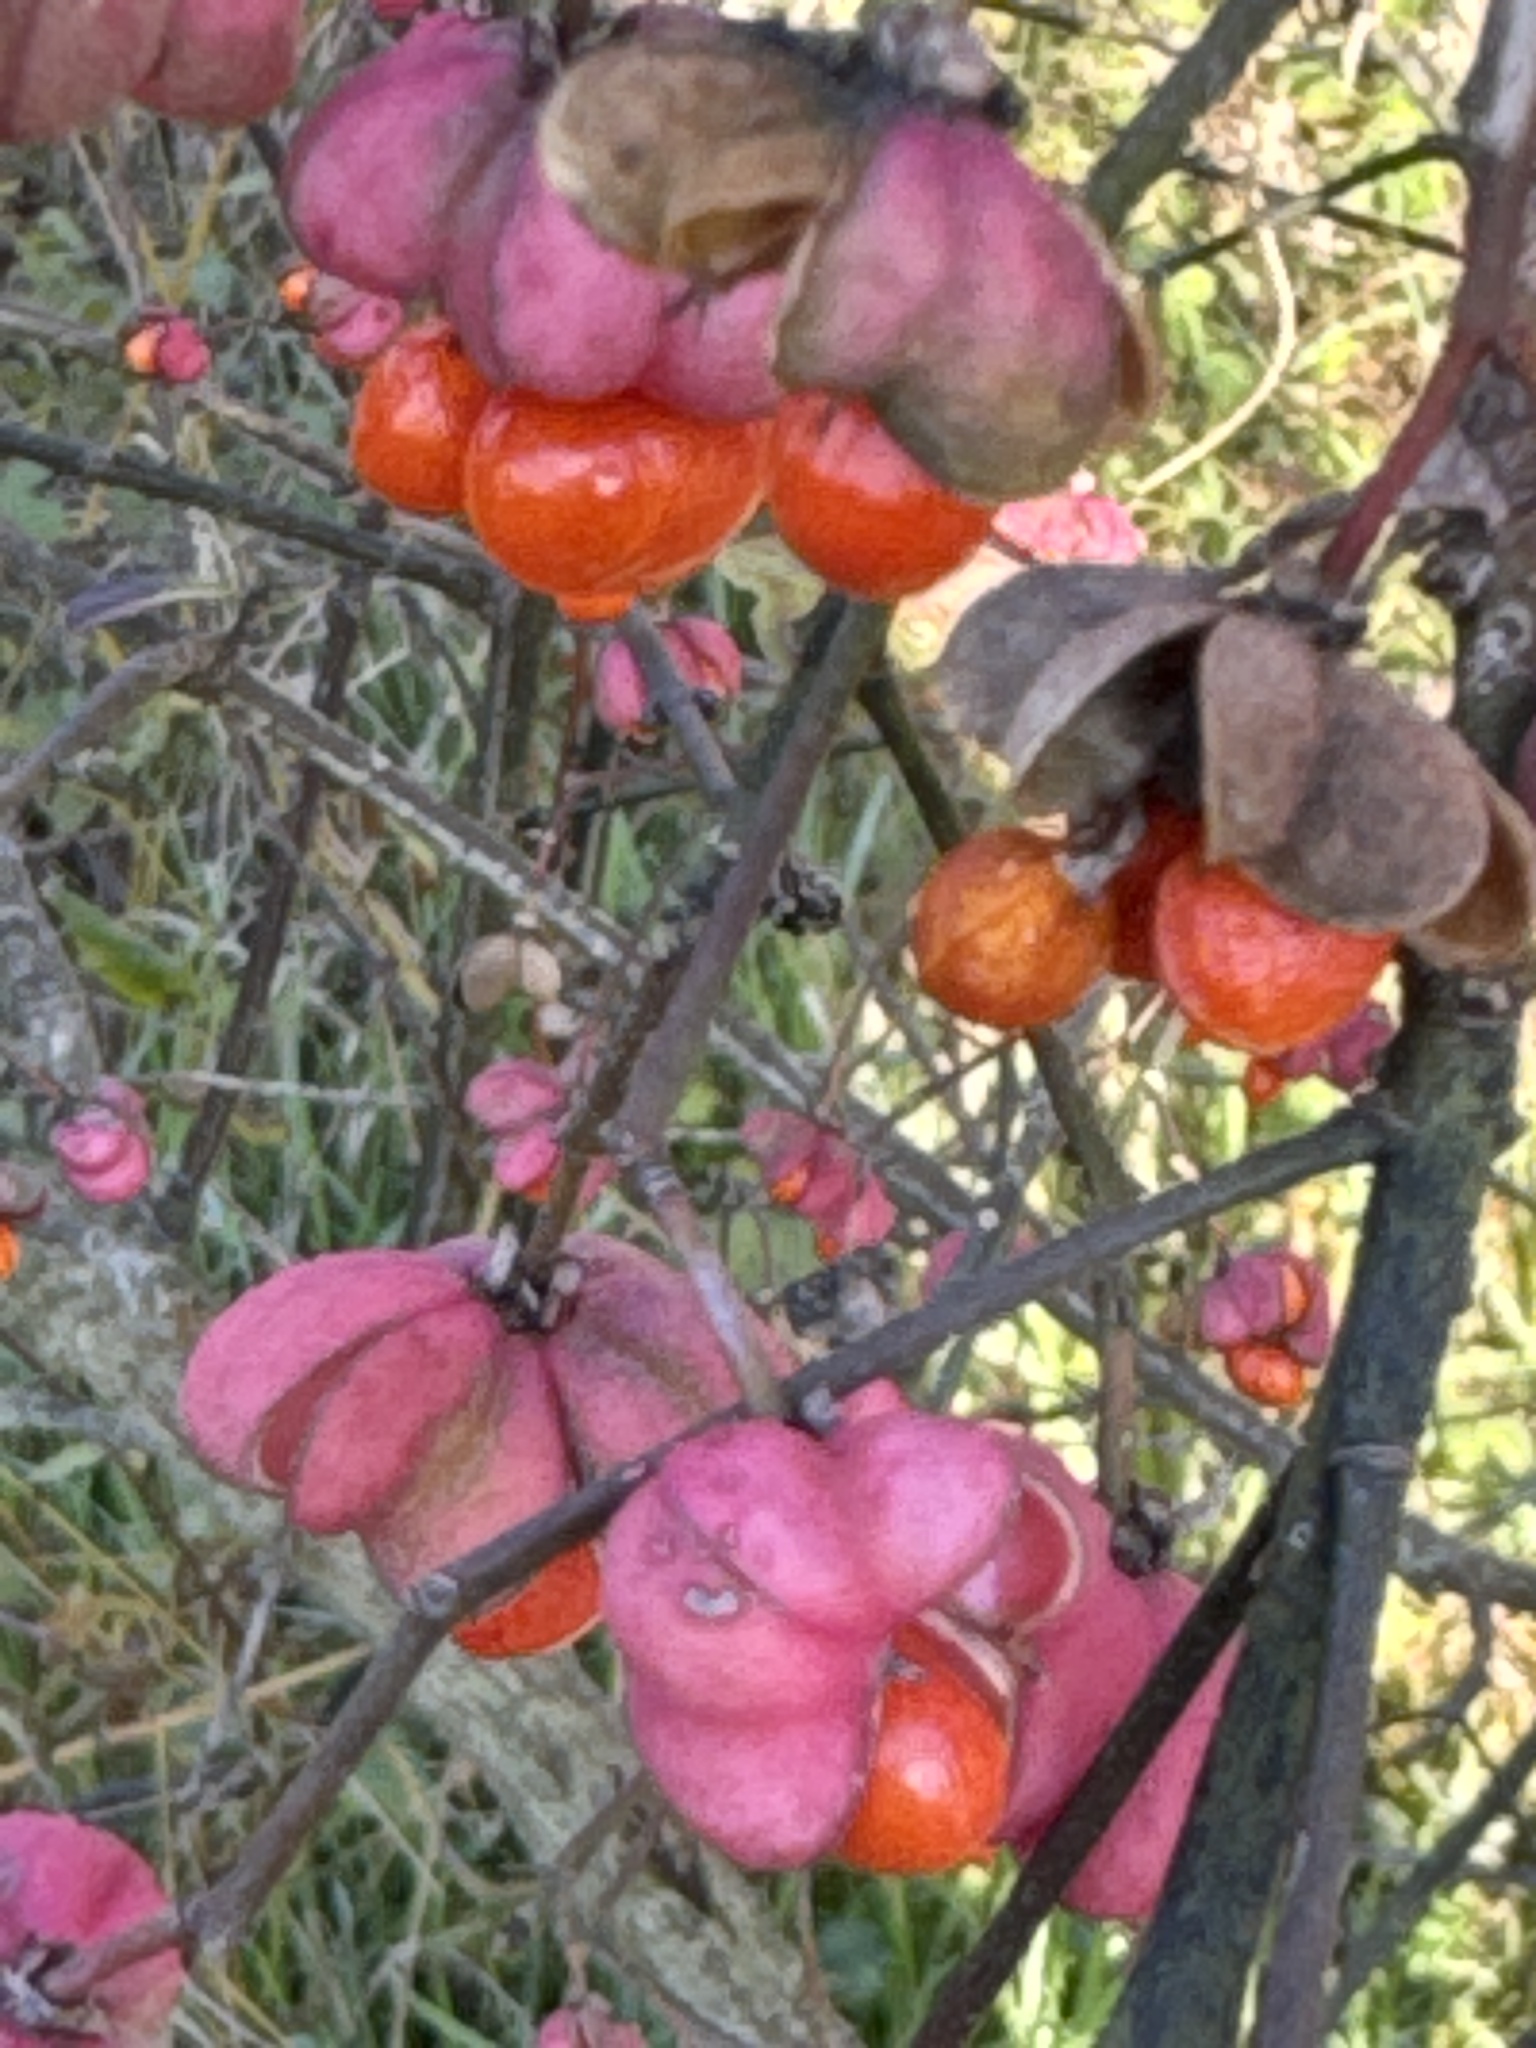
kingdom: Plantae
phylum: Tracheophyta
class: Magnoliopsida
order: Celastrales
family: Celastraceae
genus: Euonymus
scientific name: Euonymus europaeus
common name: Spindle
